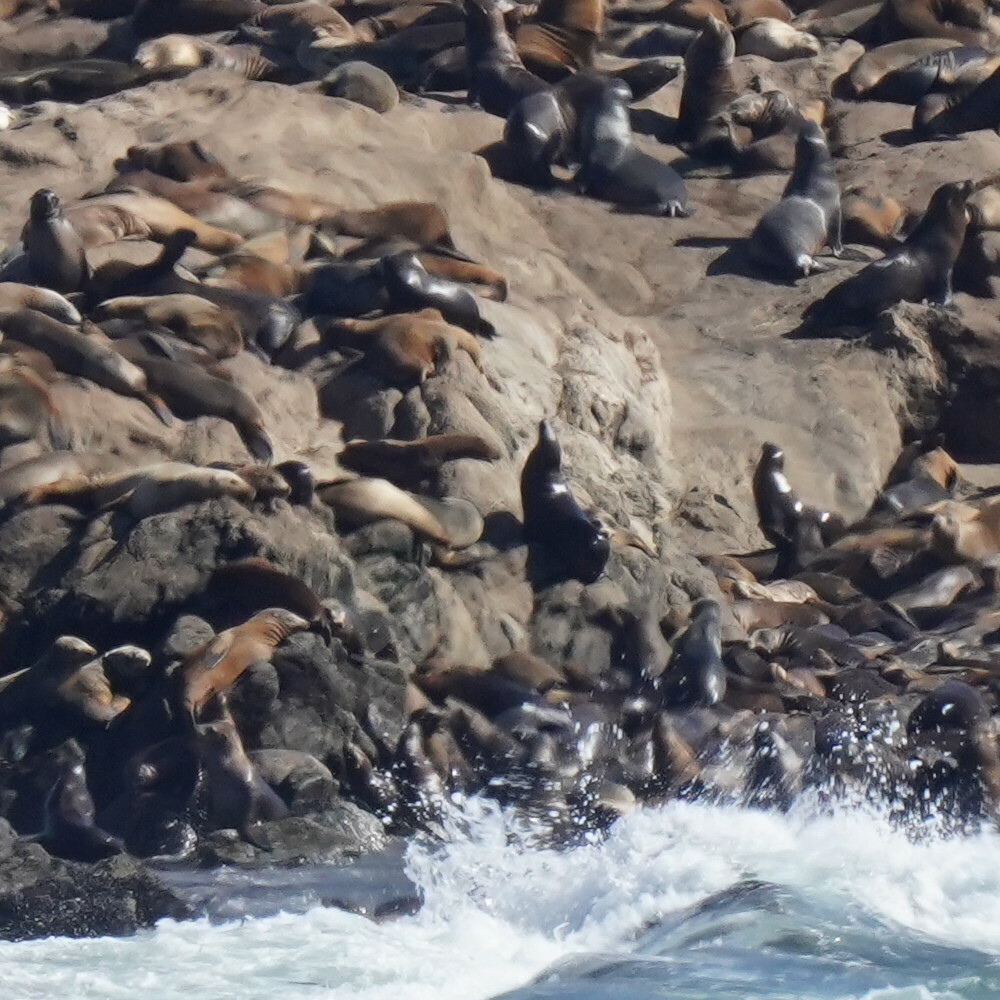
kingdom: Animalia
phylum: Chordata
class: Mammalia
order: Carnivora
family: Otariidae
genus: Zalophus
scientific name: Zalophus californianus
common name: California sea lion
